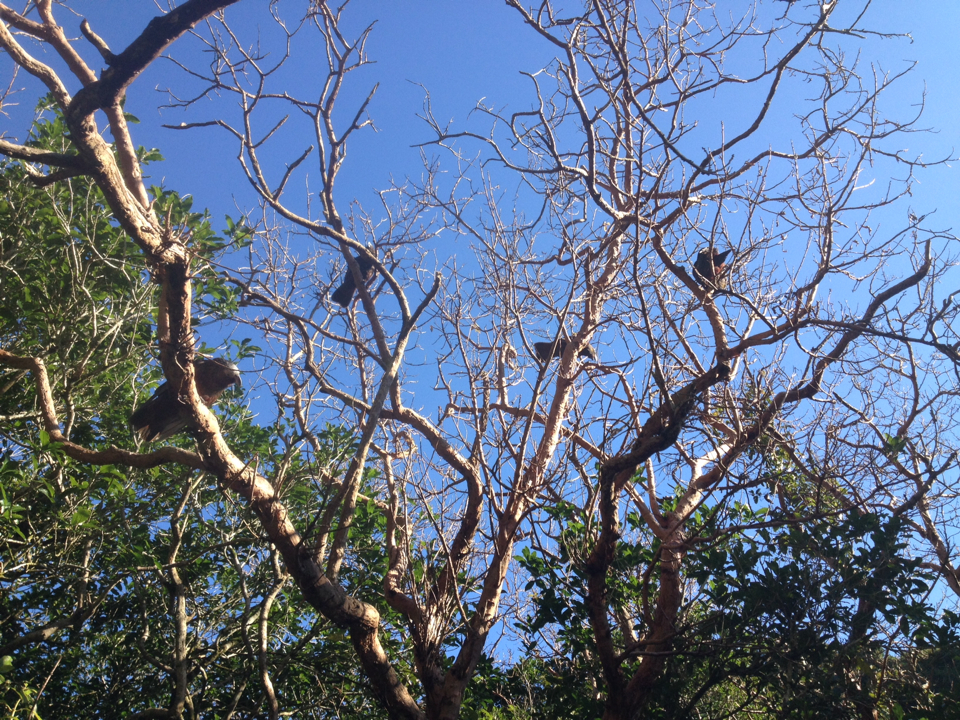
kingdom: Animalia
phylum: Chordata
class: Aves
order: Psittaciformes
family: Psittacidae
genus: Nestor
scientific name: Nestor meridionalis
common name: New zealand kaka
